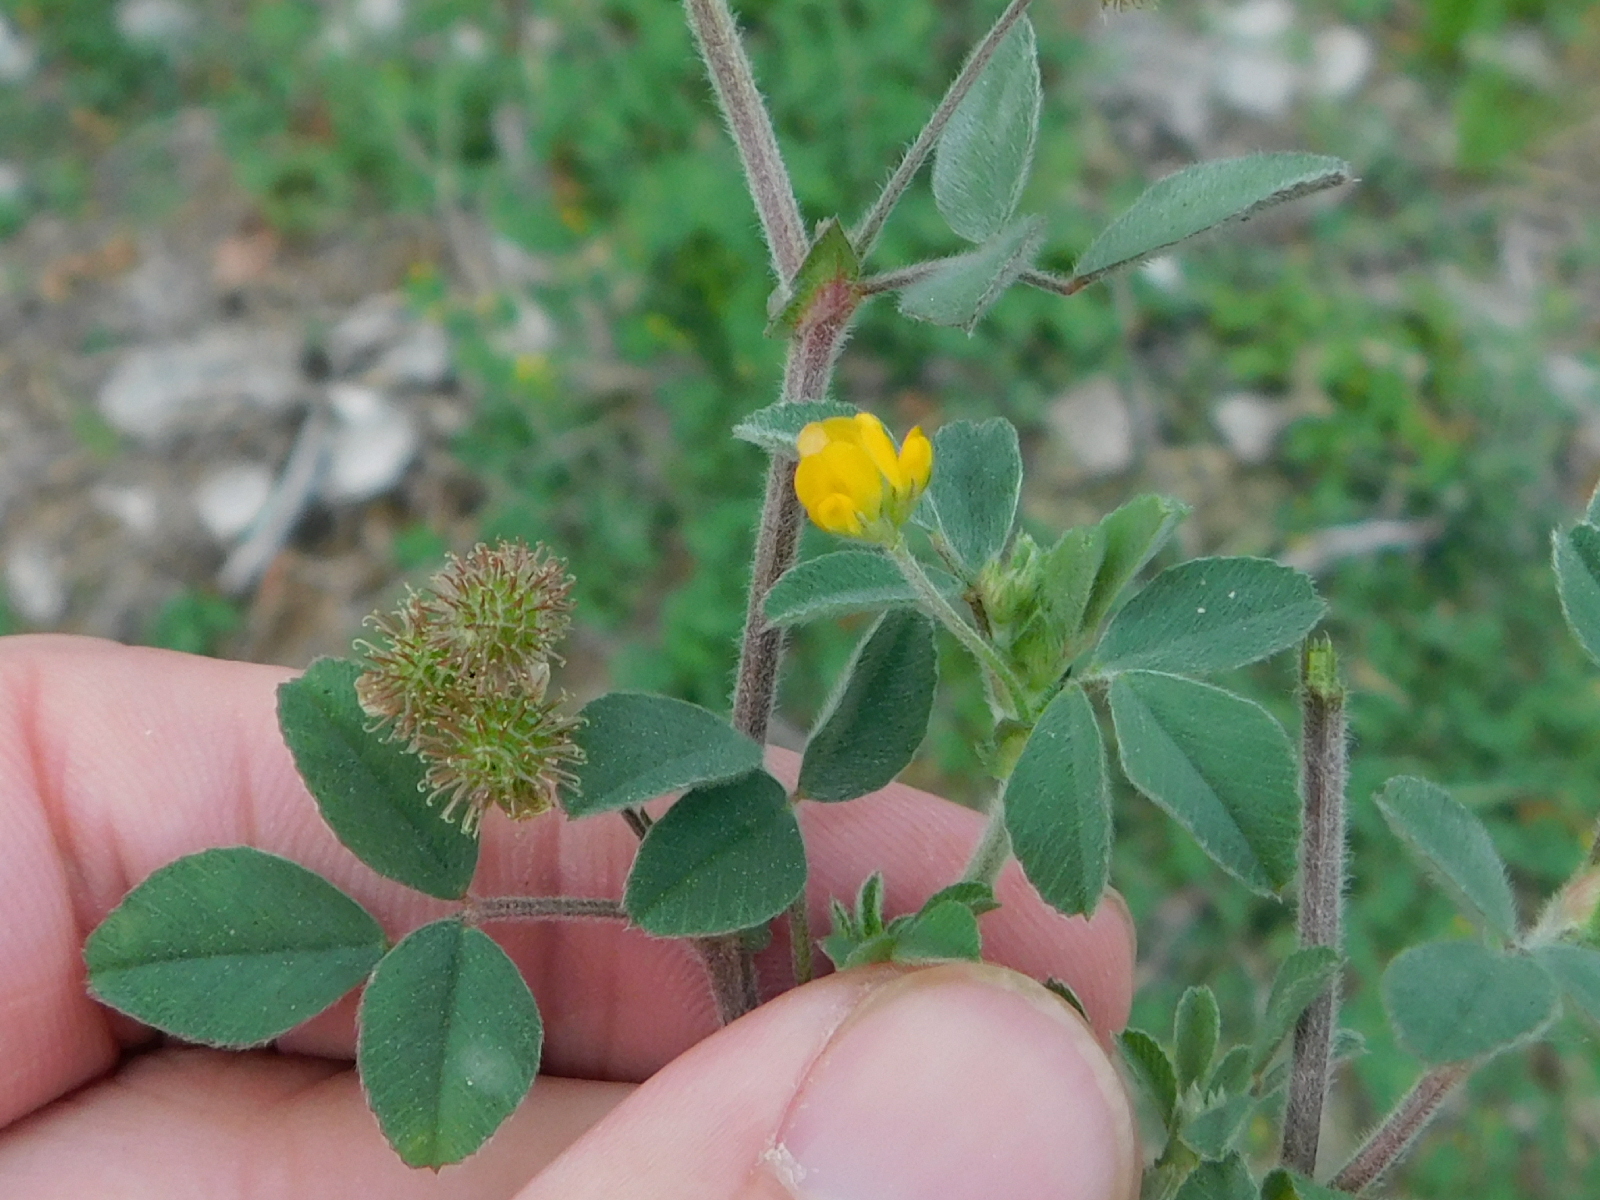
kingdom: Plantae
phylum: Tracheophyta
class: Magnoliopsida
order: Fabales
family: Fabaceae
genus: Medicago
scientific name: Medicago minima
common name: Little bur-clover
